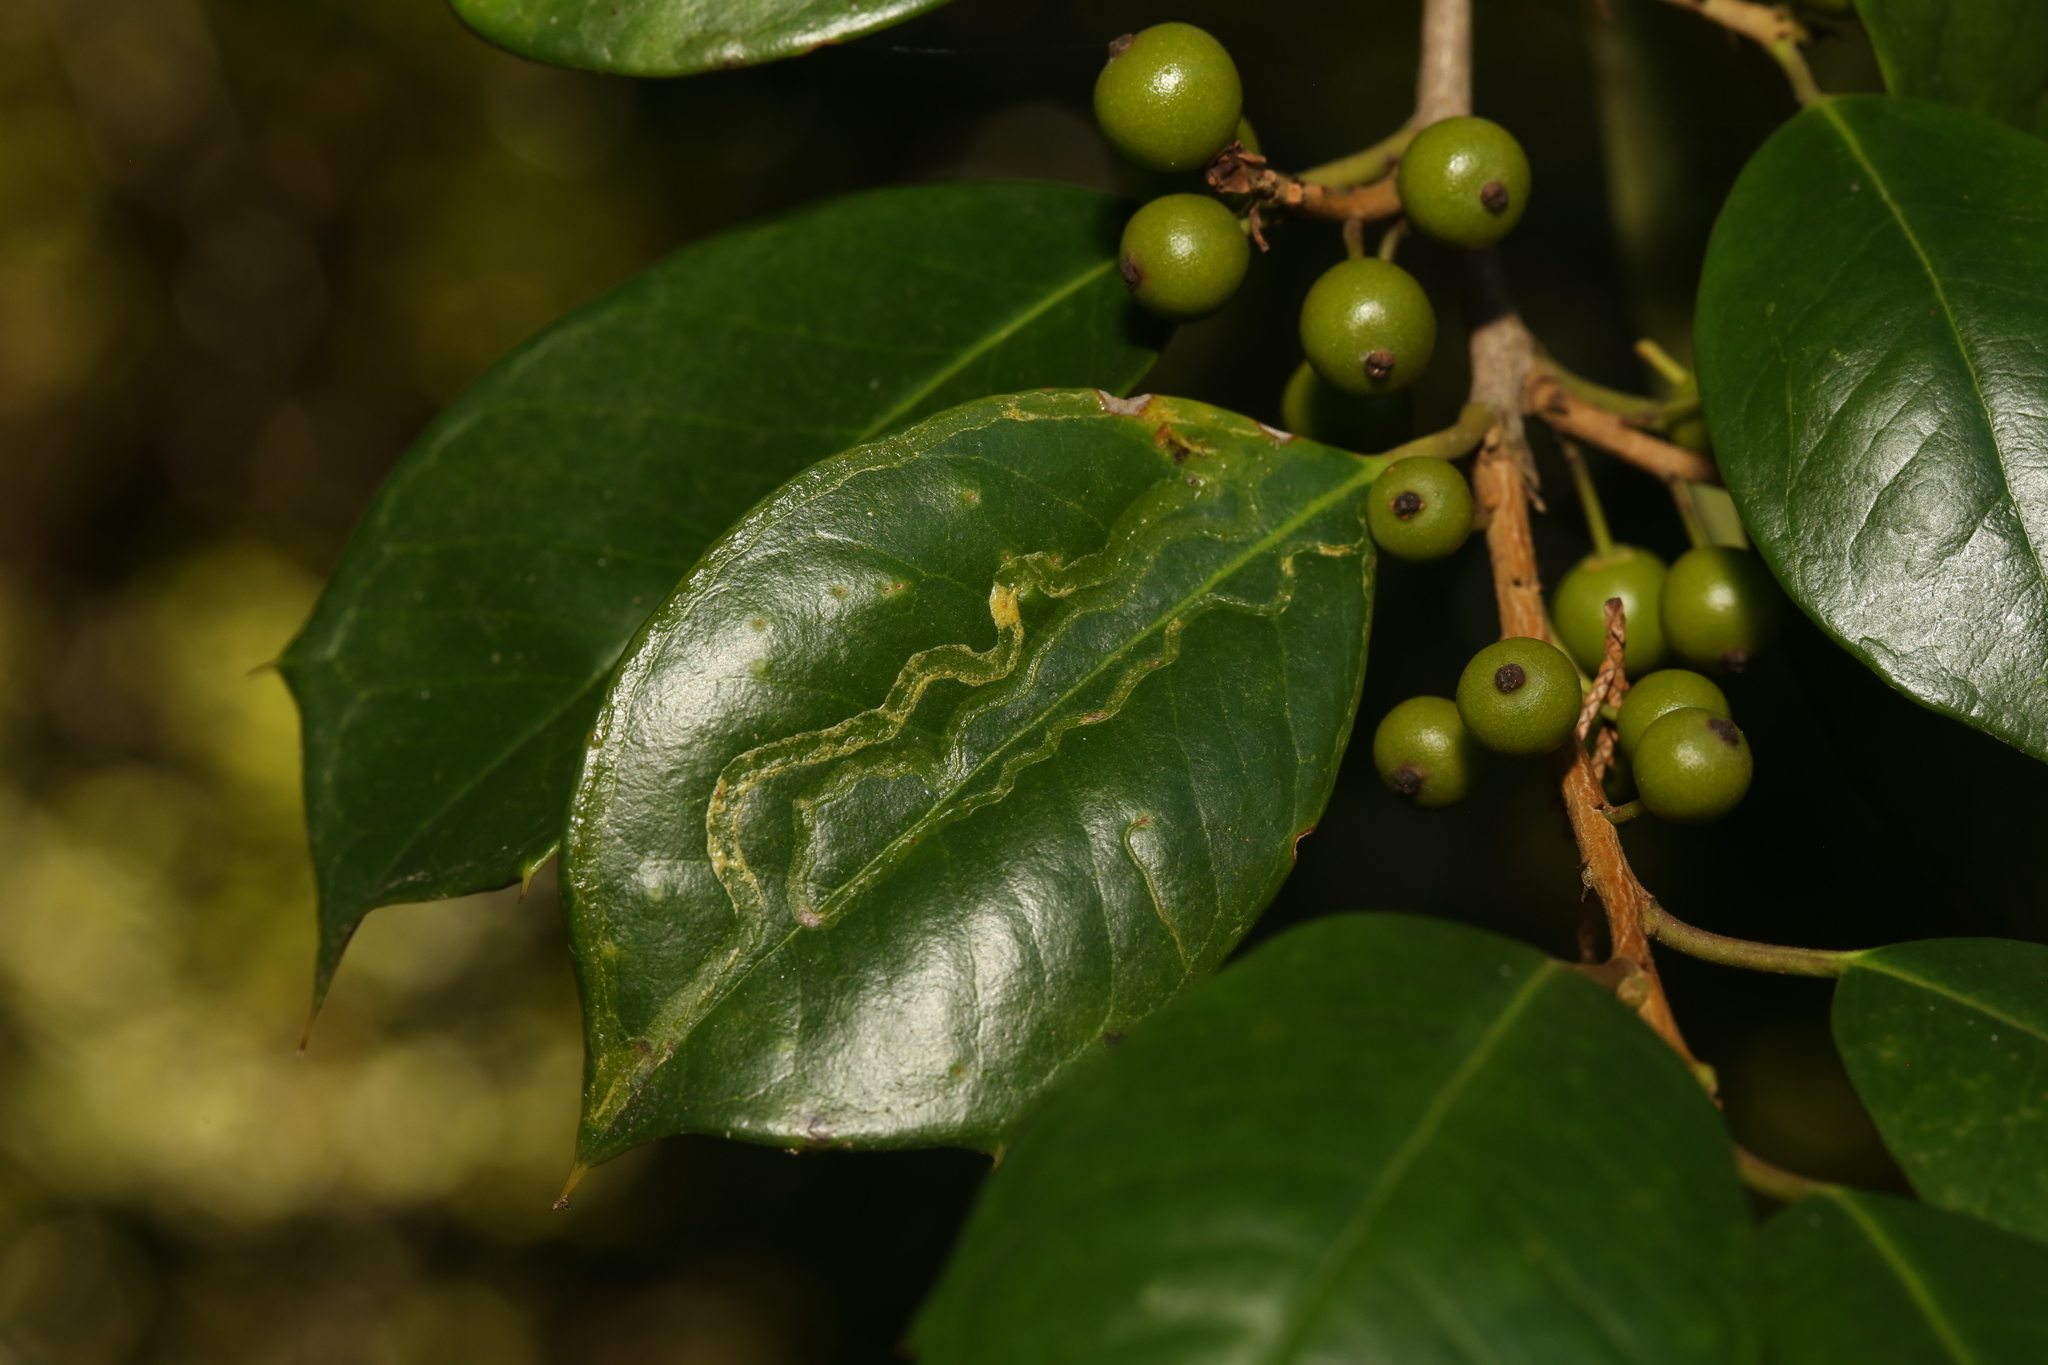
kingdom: Animalia
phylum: Arthropoda
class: Insecta
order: Diptera
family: Agromyzidae
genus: Phytomyza
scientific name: Phytomyza opacae
